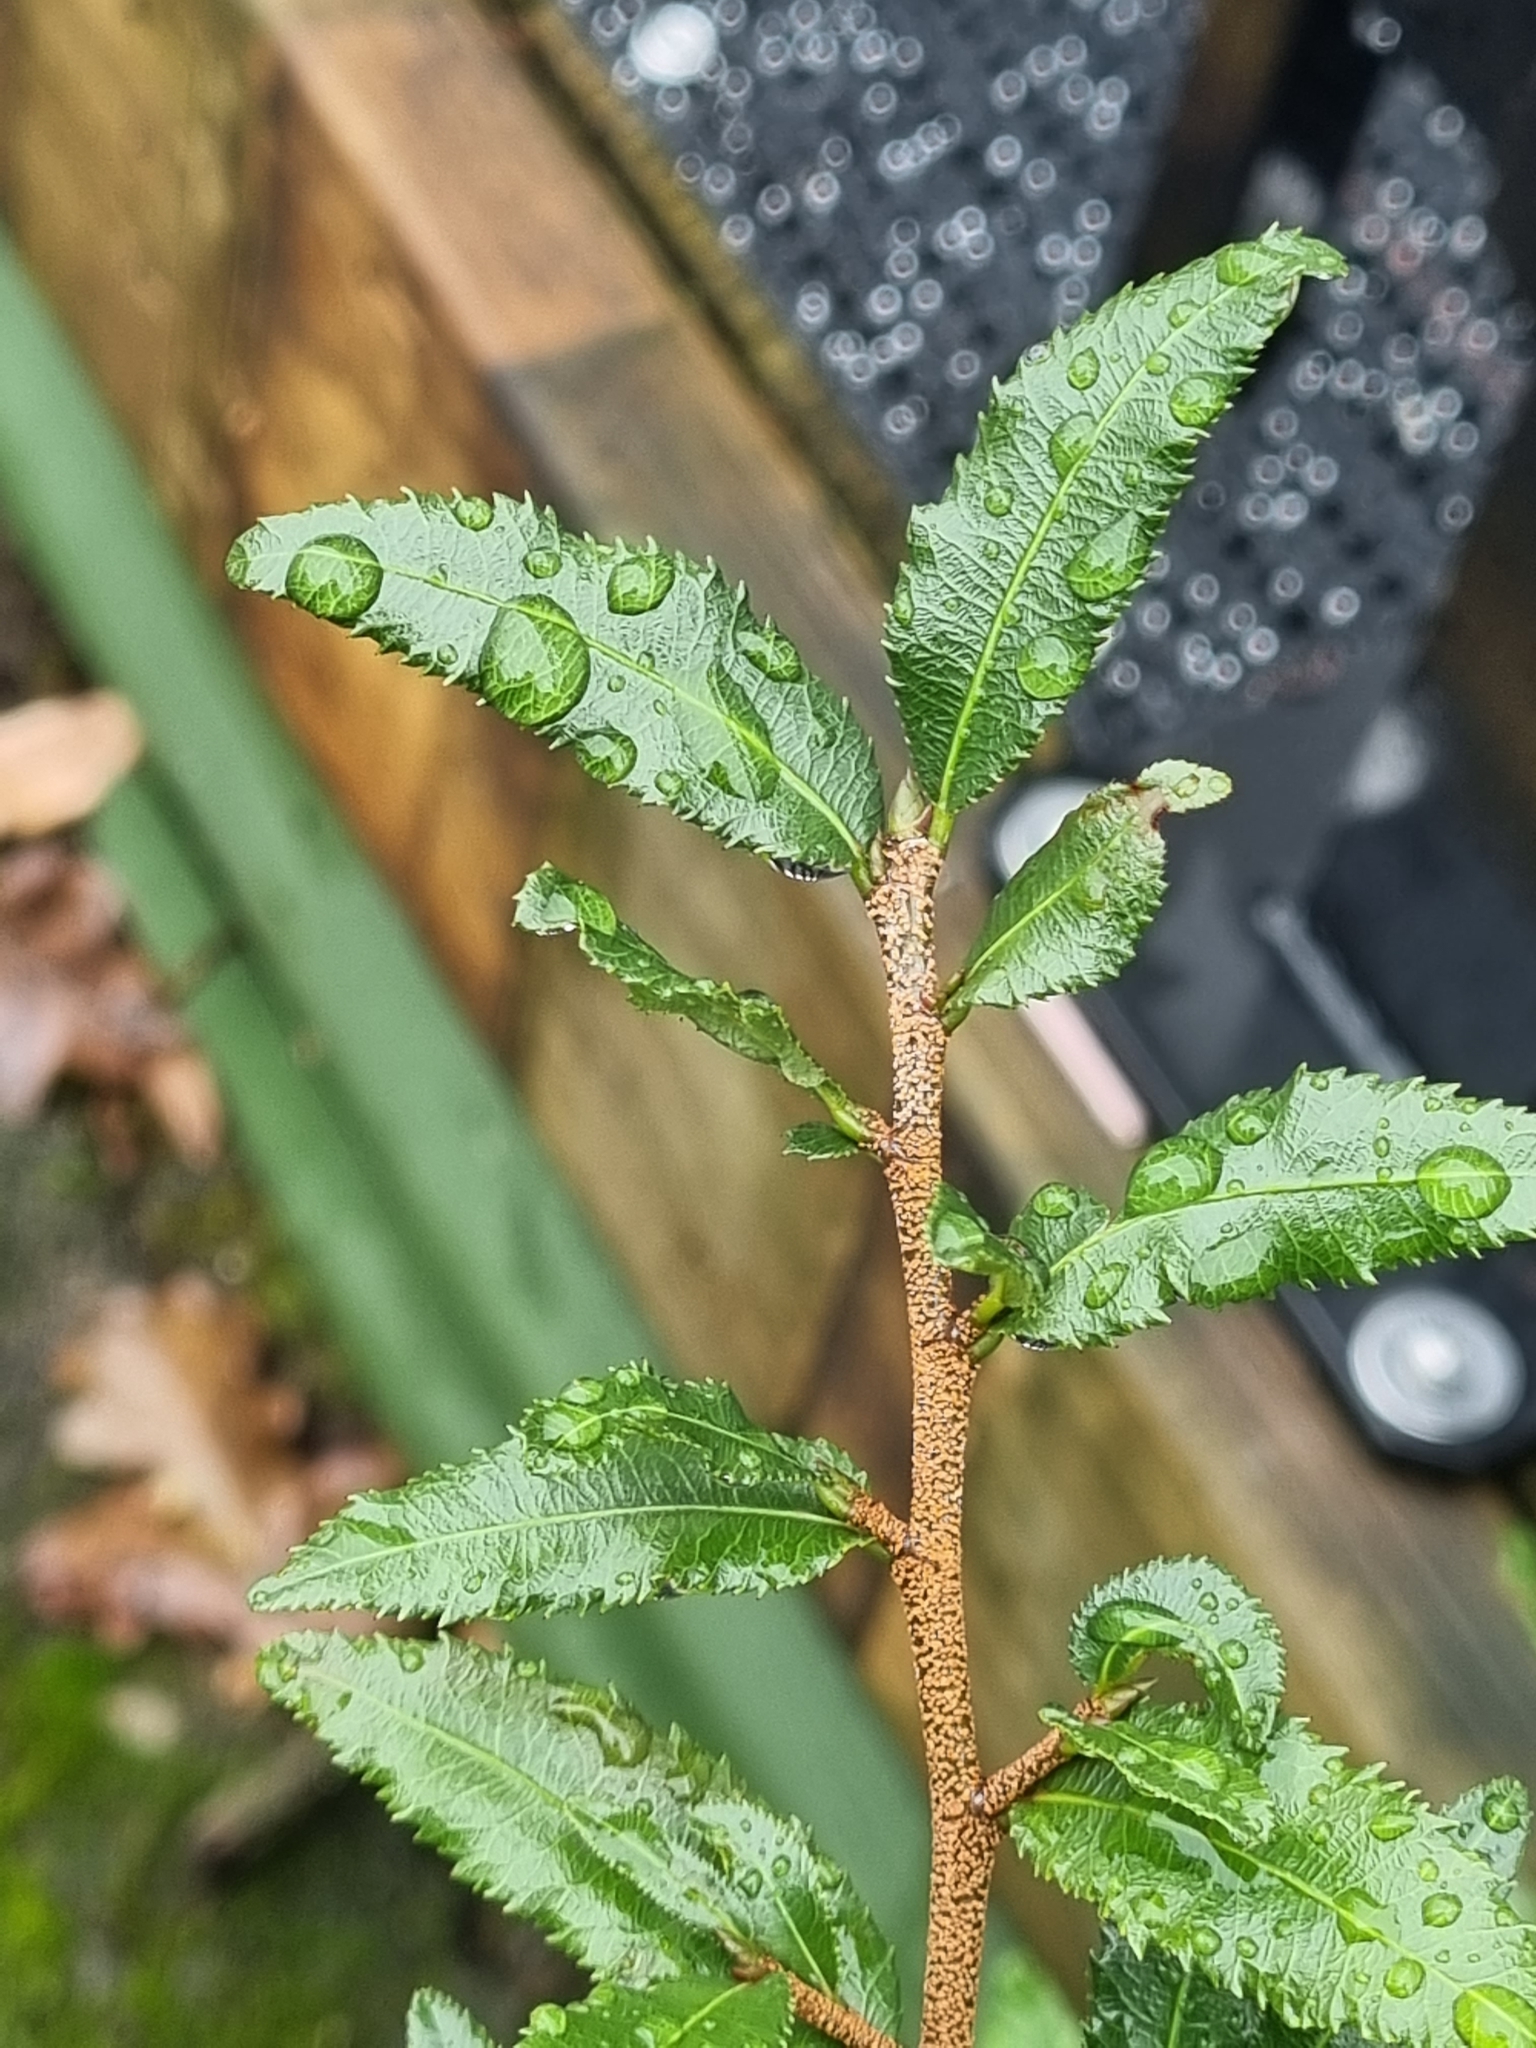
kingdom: Plantae
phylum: Tracheophyta
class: Magnoliopsida
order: Malpighiales
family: Ochnaceae
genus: Ochna
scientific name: Ochna serrulata
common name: Mickey mouse plant
